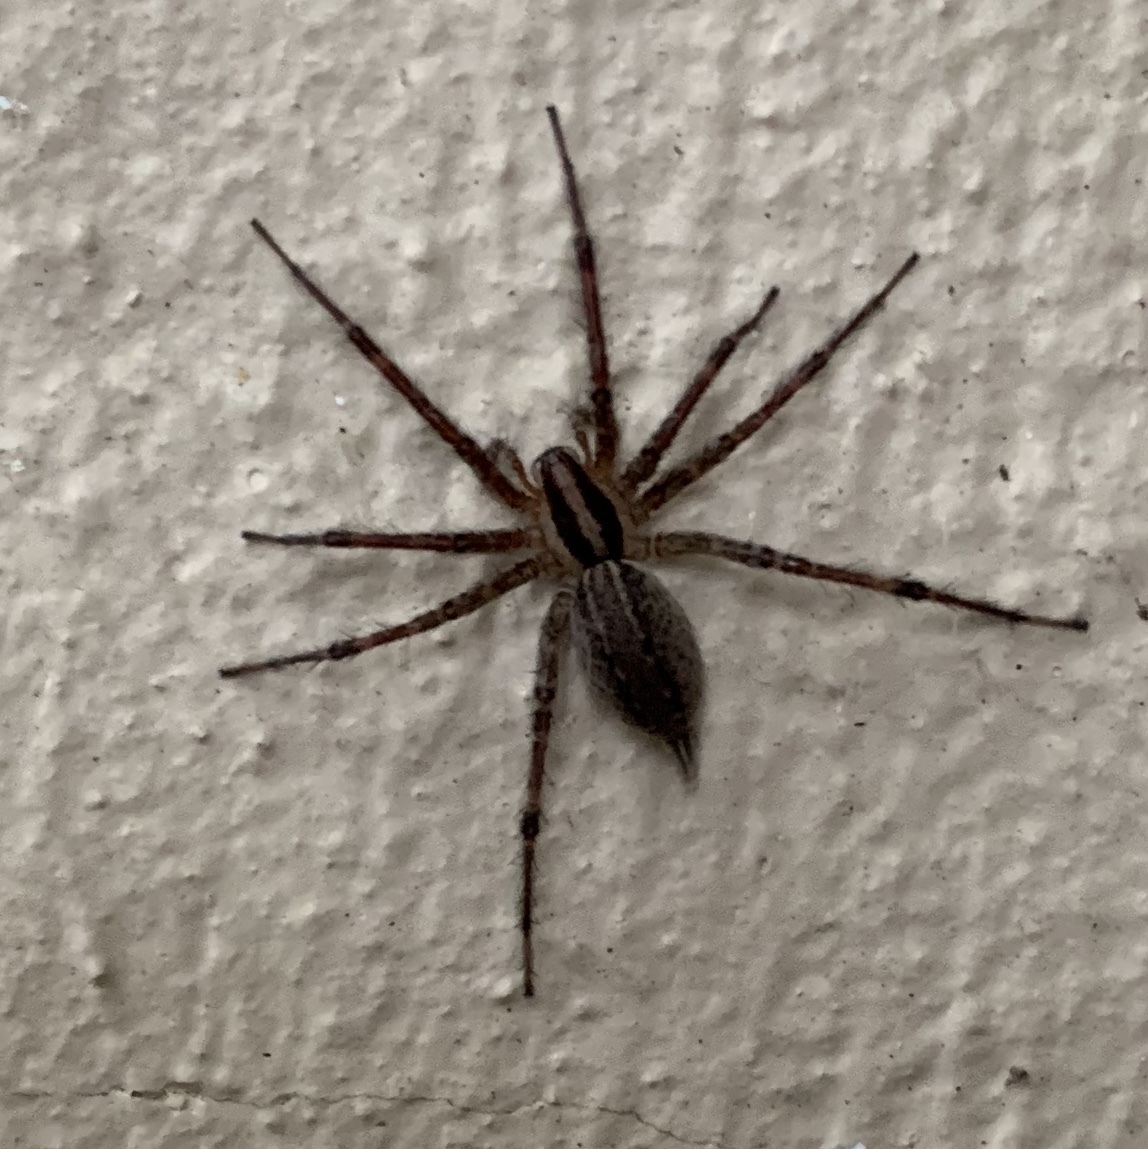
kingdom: Animalia
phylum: Arthropoda
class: Arachnida
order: Araneae
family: Agelenidae
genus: Agelenopsis
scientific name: Agelenopsis
